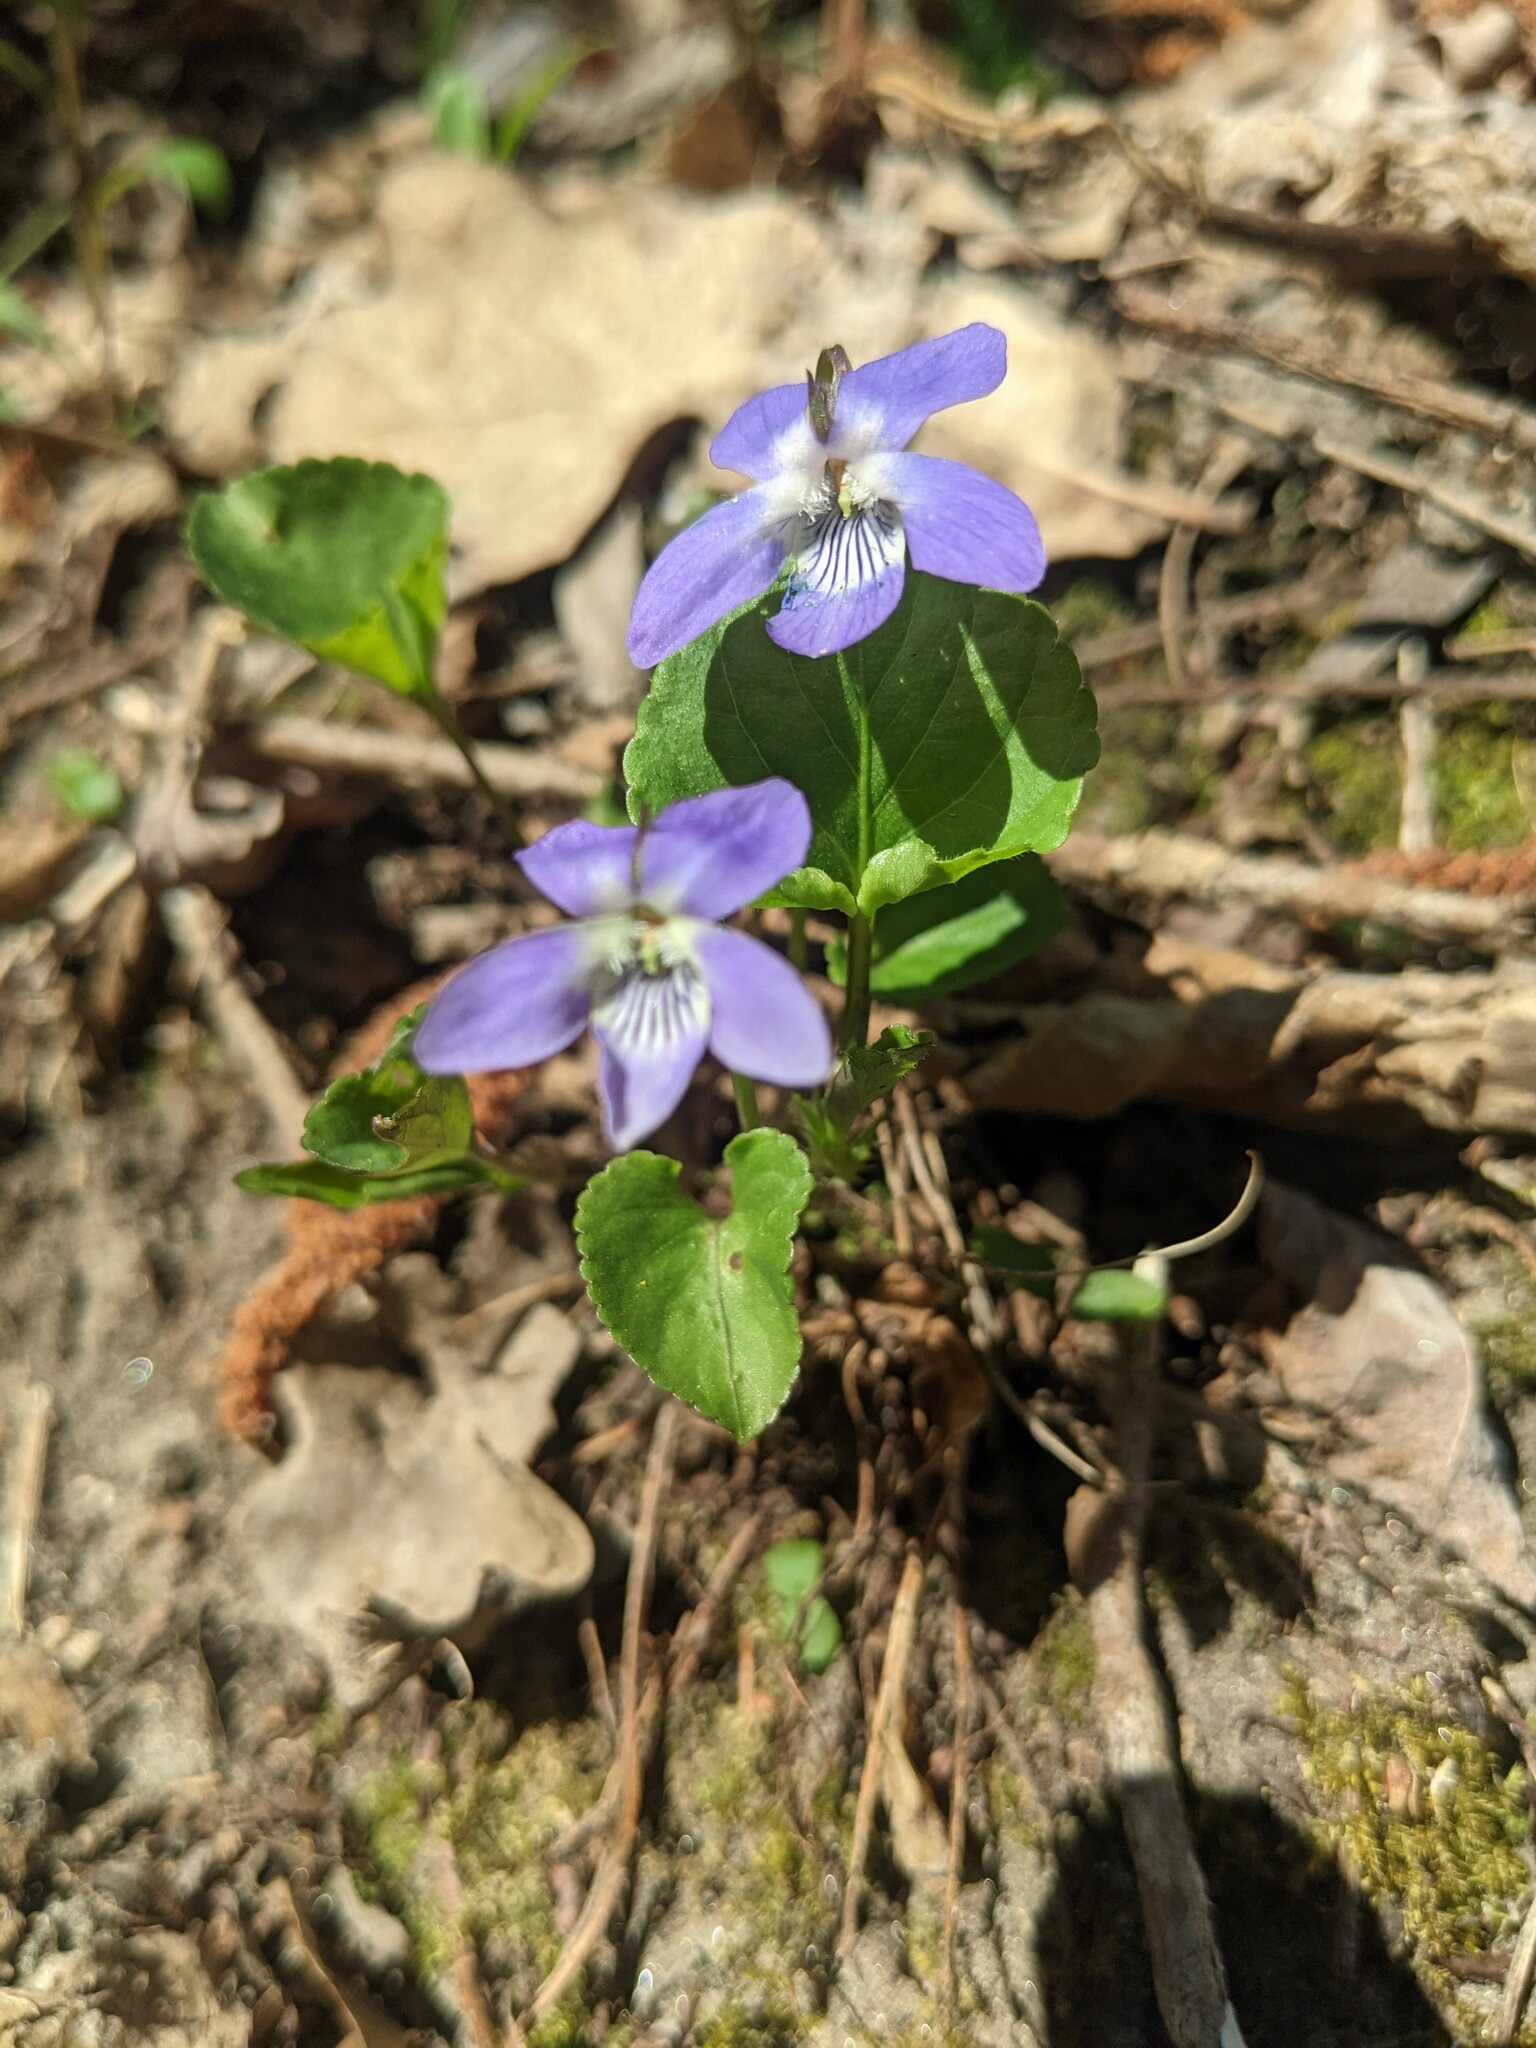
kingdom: Plantae
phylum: Tracheophyta
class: Magnoliopsida
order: Malpighiales
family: Violaceae
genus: Viola
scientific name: Viola riviniana
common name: Common dog-violet
